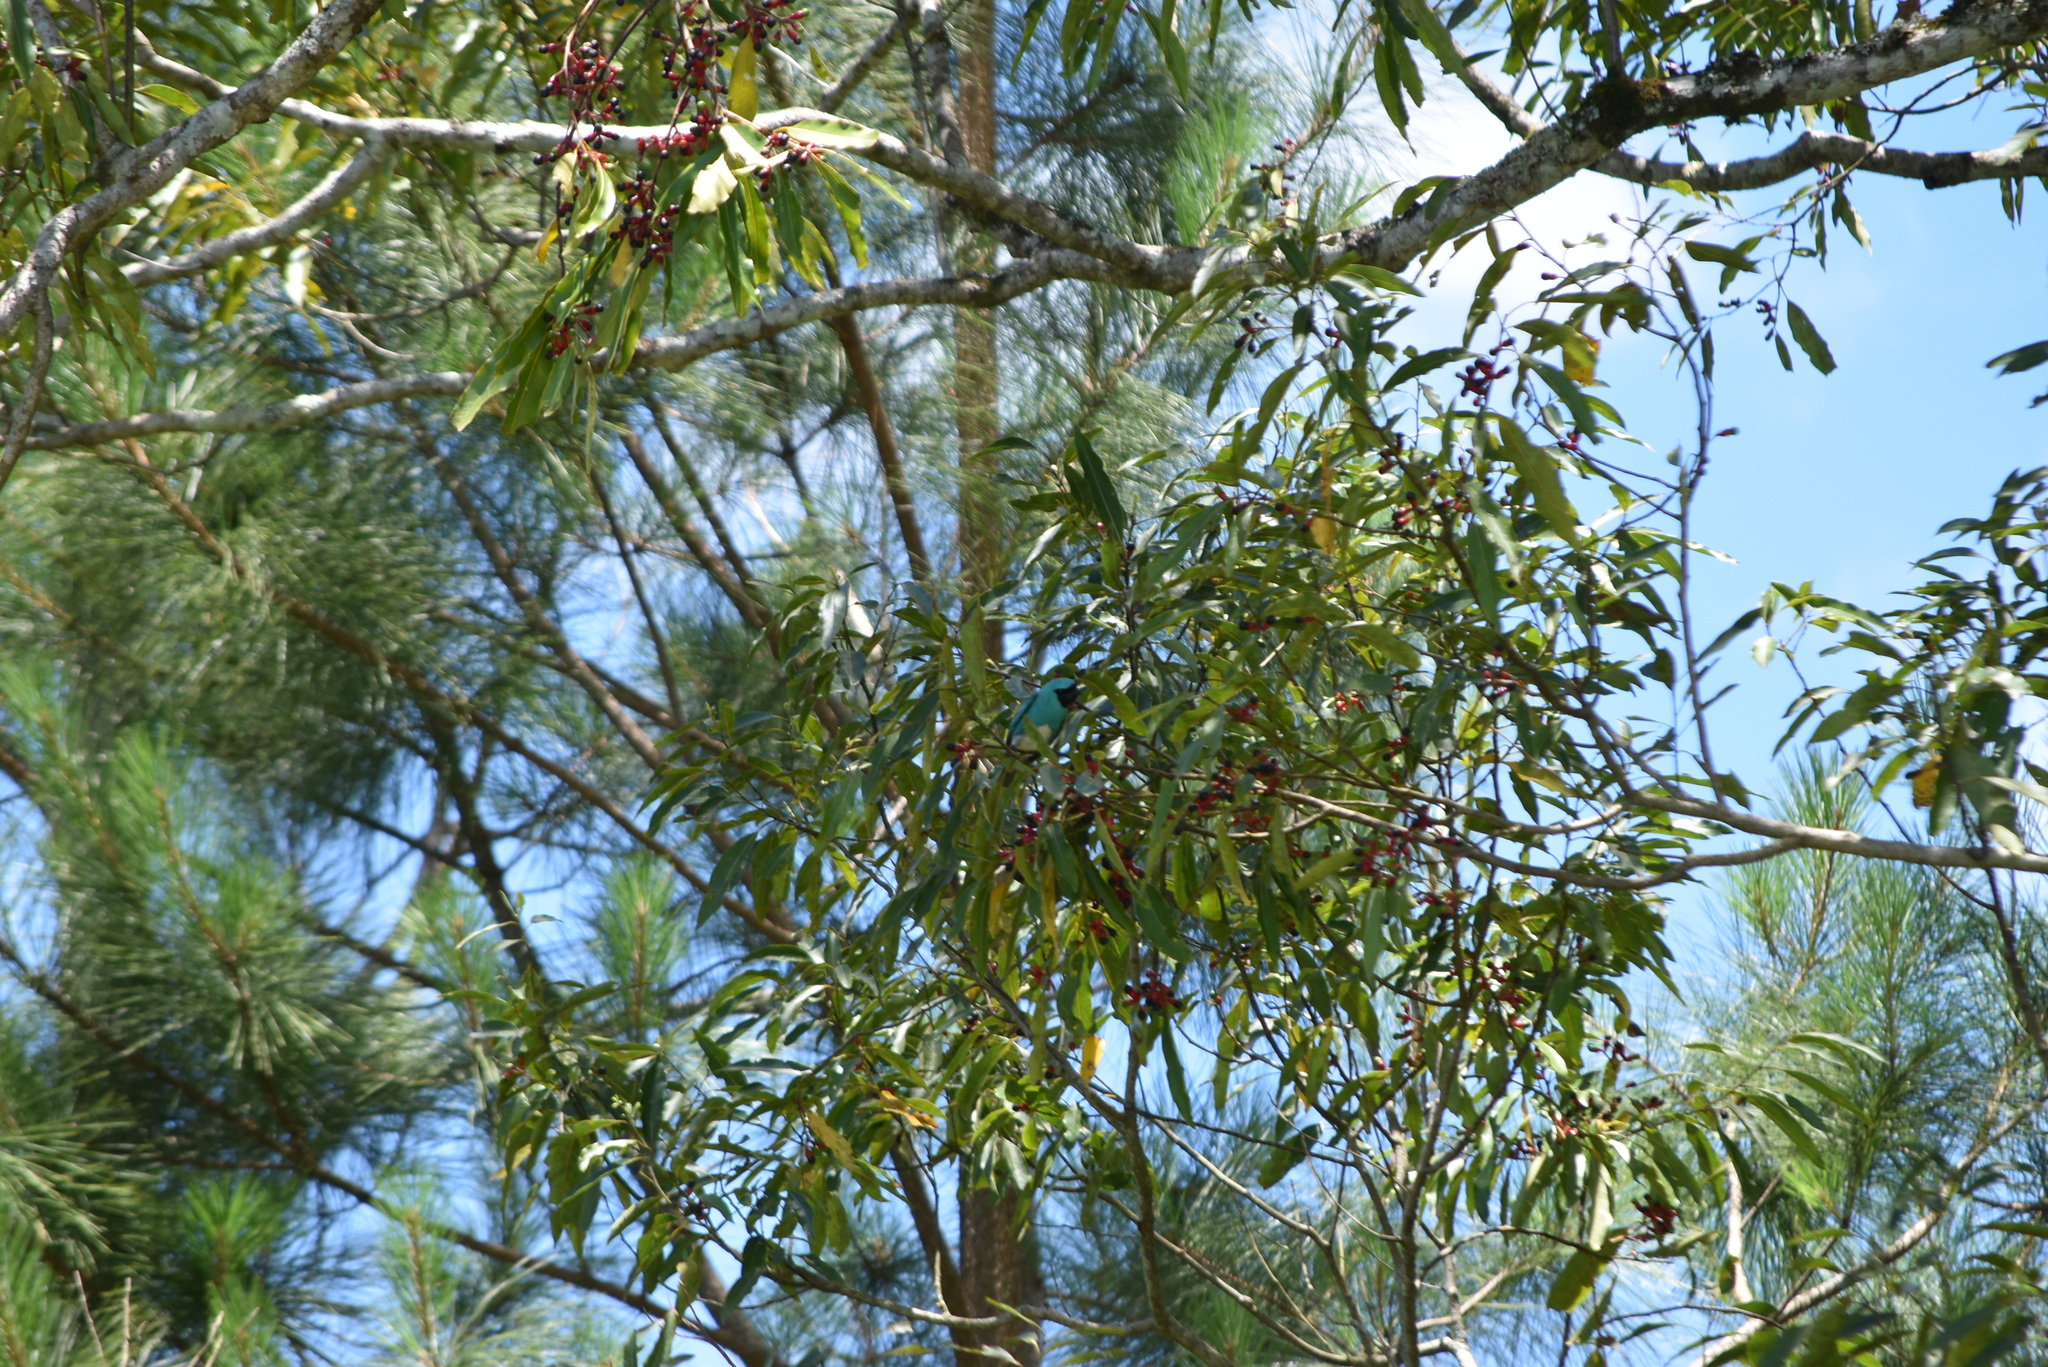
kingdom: Animalia
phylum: Chordata
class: Aves
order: Passeriformes
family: Thraupidae
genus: Tersina
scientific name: Tersina viridis
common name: Swallow tanager
